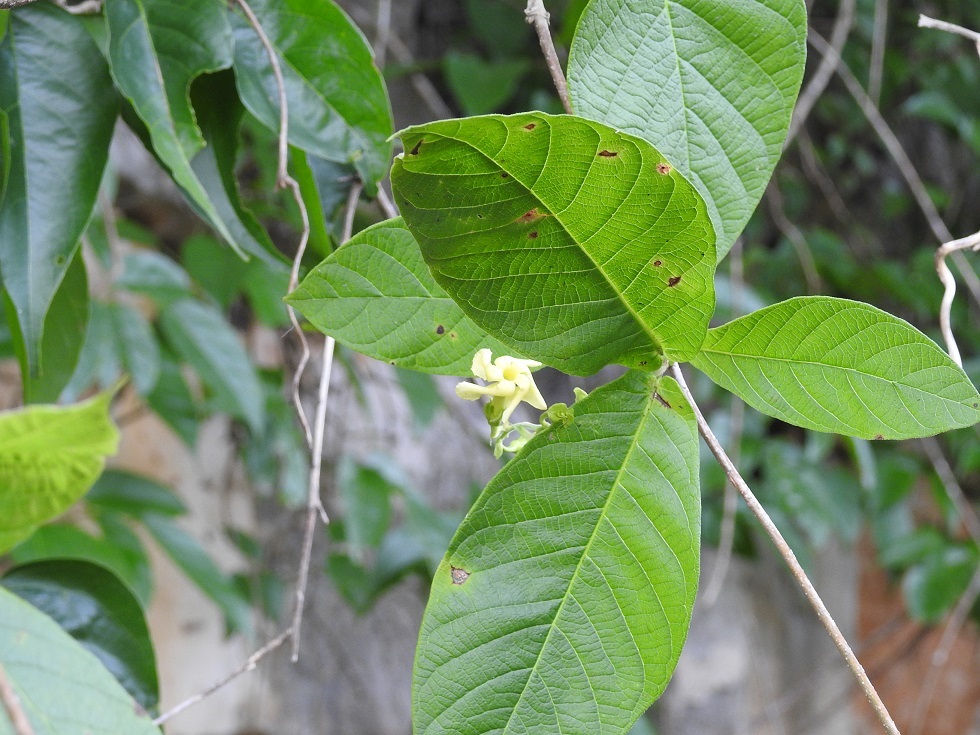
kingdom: Plantae
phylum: Tracheophyta
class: Magnoliopsida
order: Gentianales
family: Apocynaceae
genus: Mandevilla
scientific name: Mandevilla subsessilis
